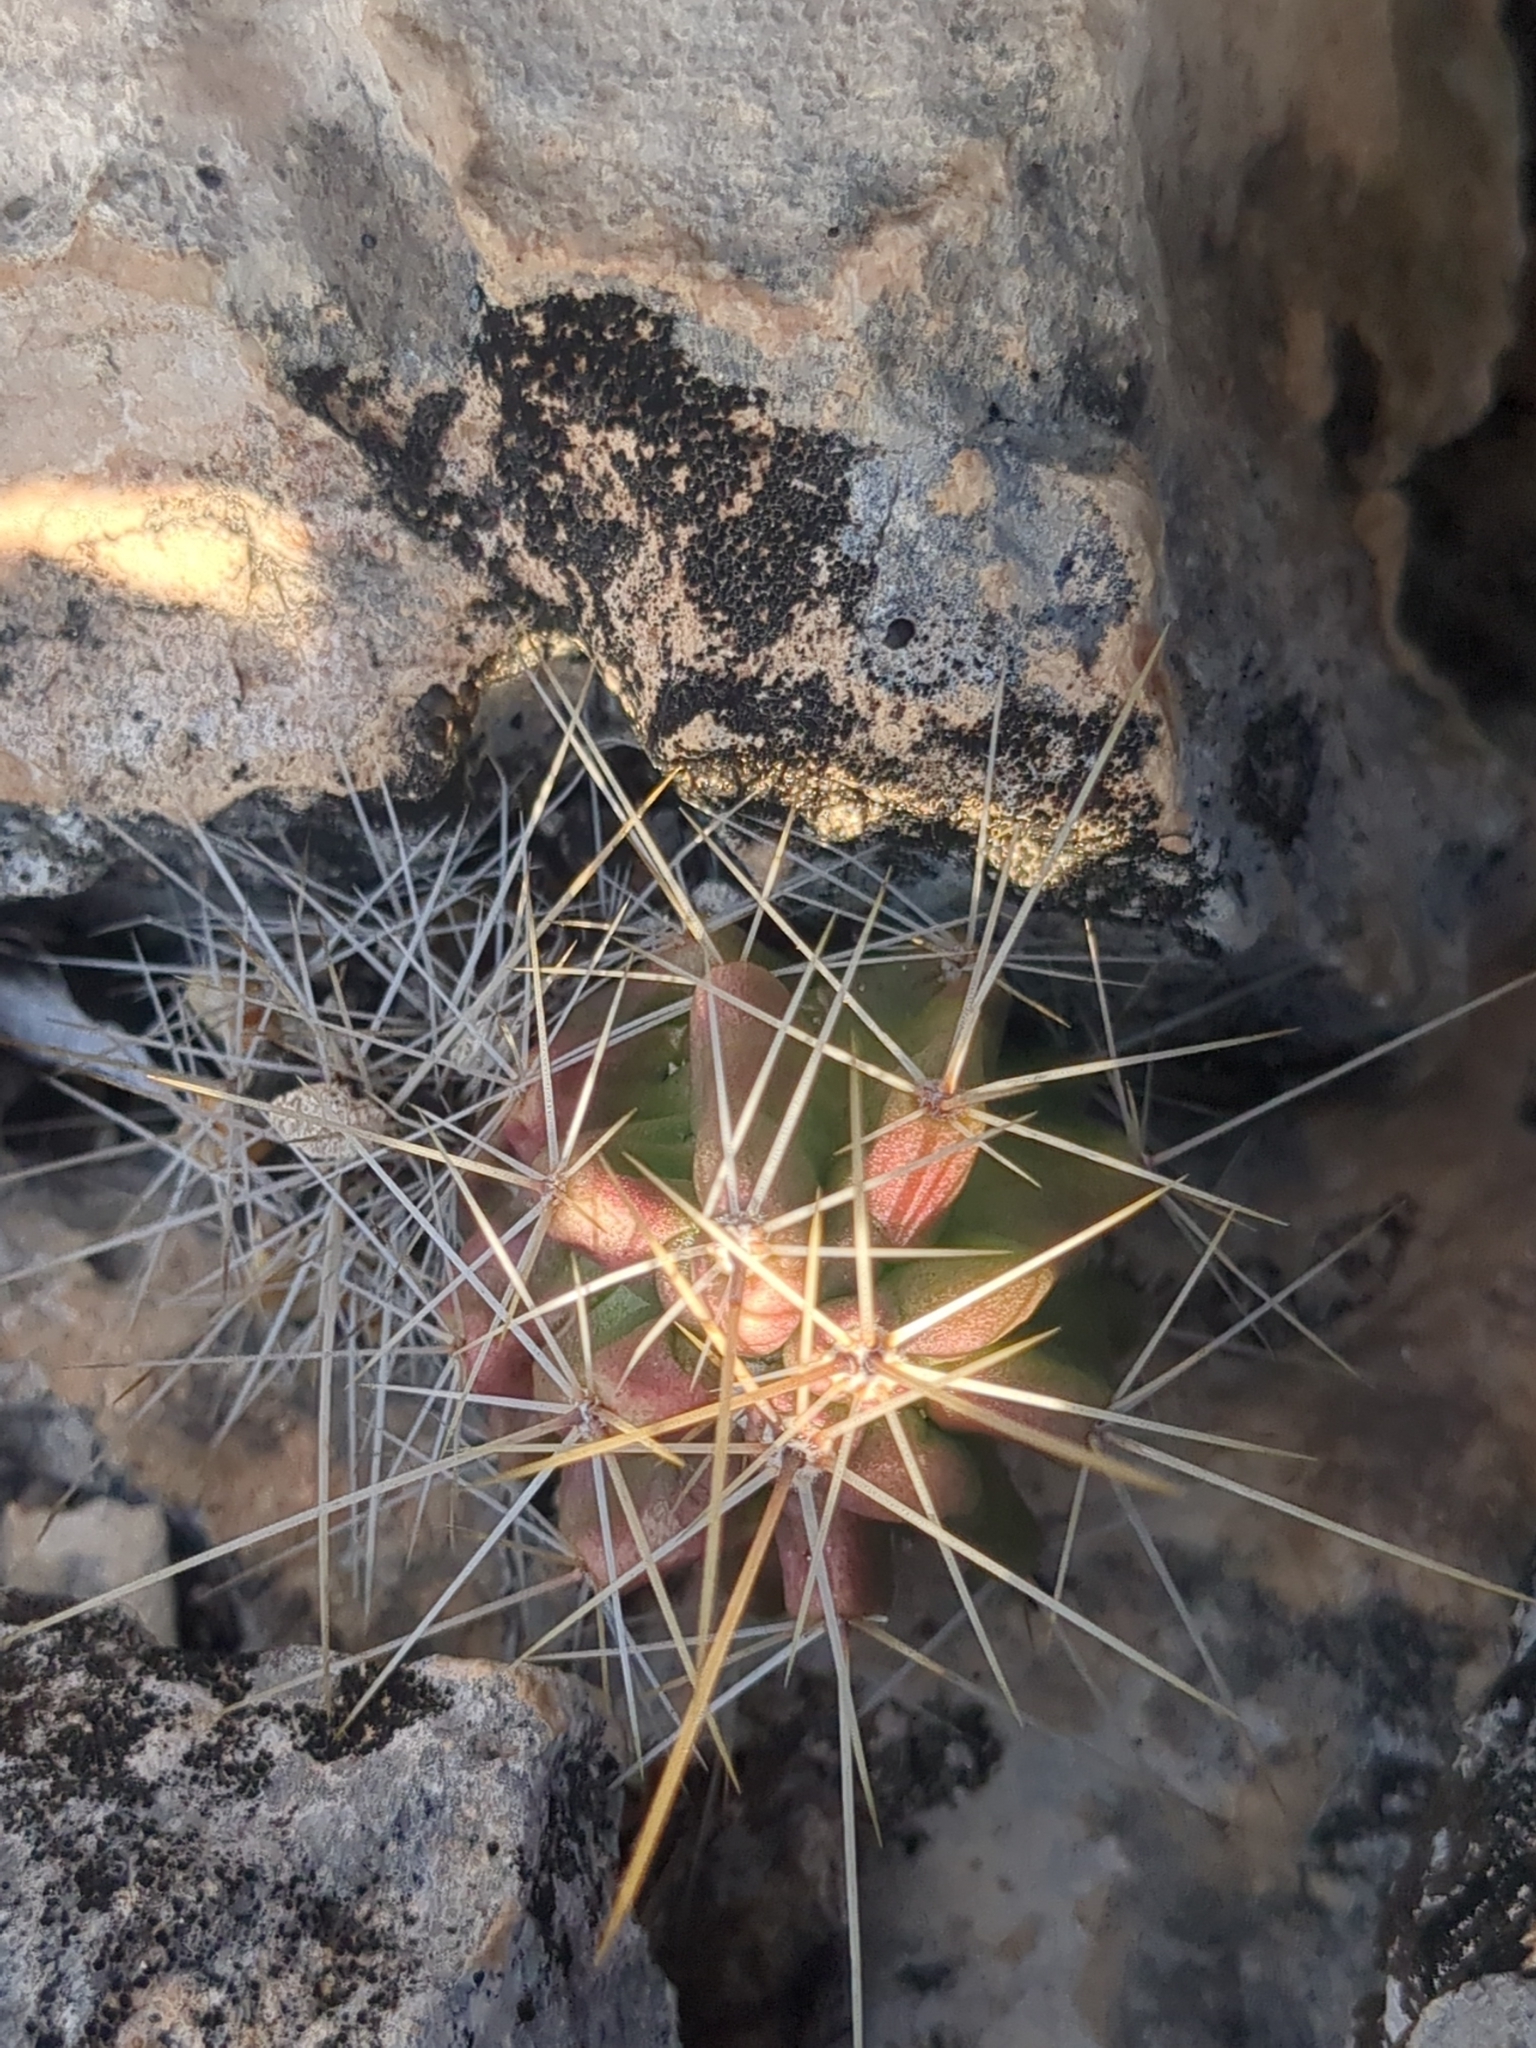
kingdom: Plantae
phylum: Tracheophyta
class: Magnoliopsida
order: Caryophyllales
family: Cactaceae
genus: Echinocereus
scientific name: Echinocereus enneacanthus
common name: Pitaya
